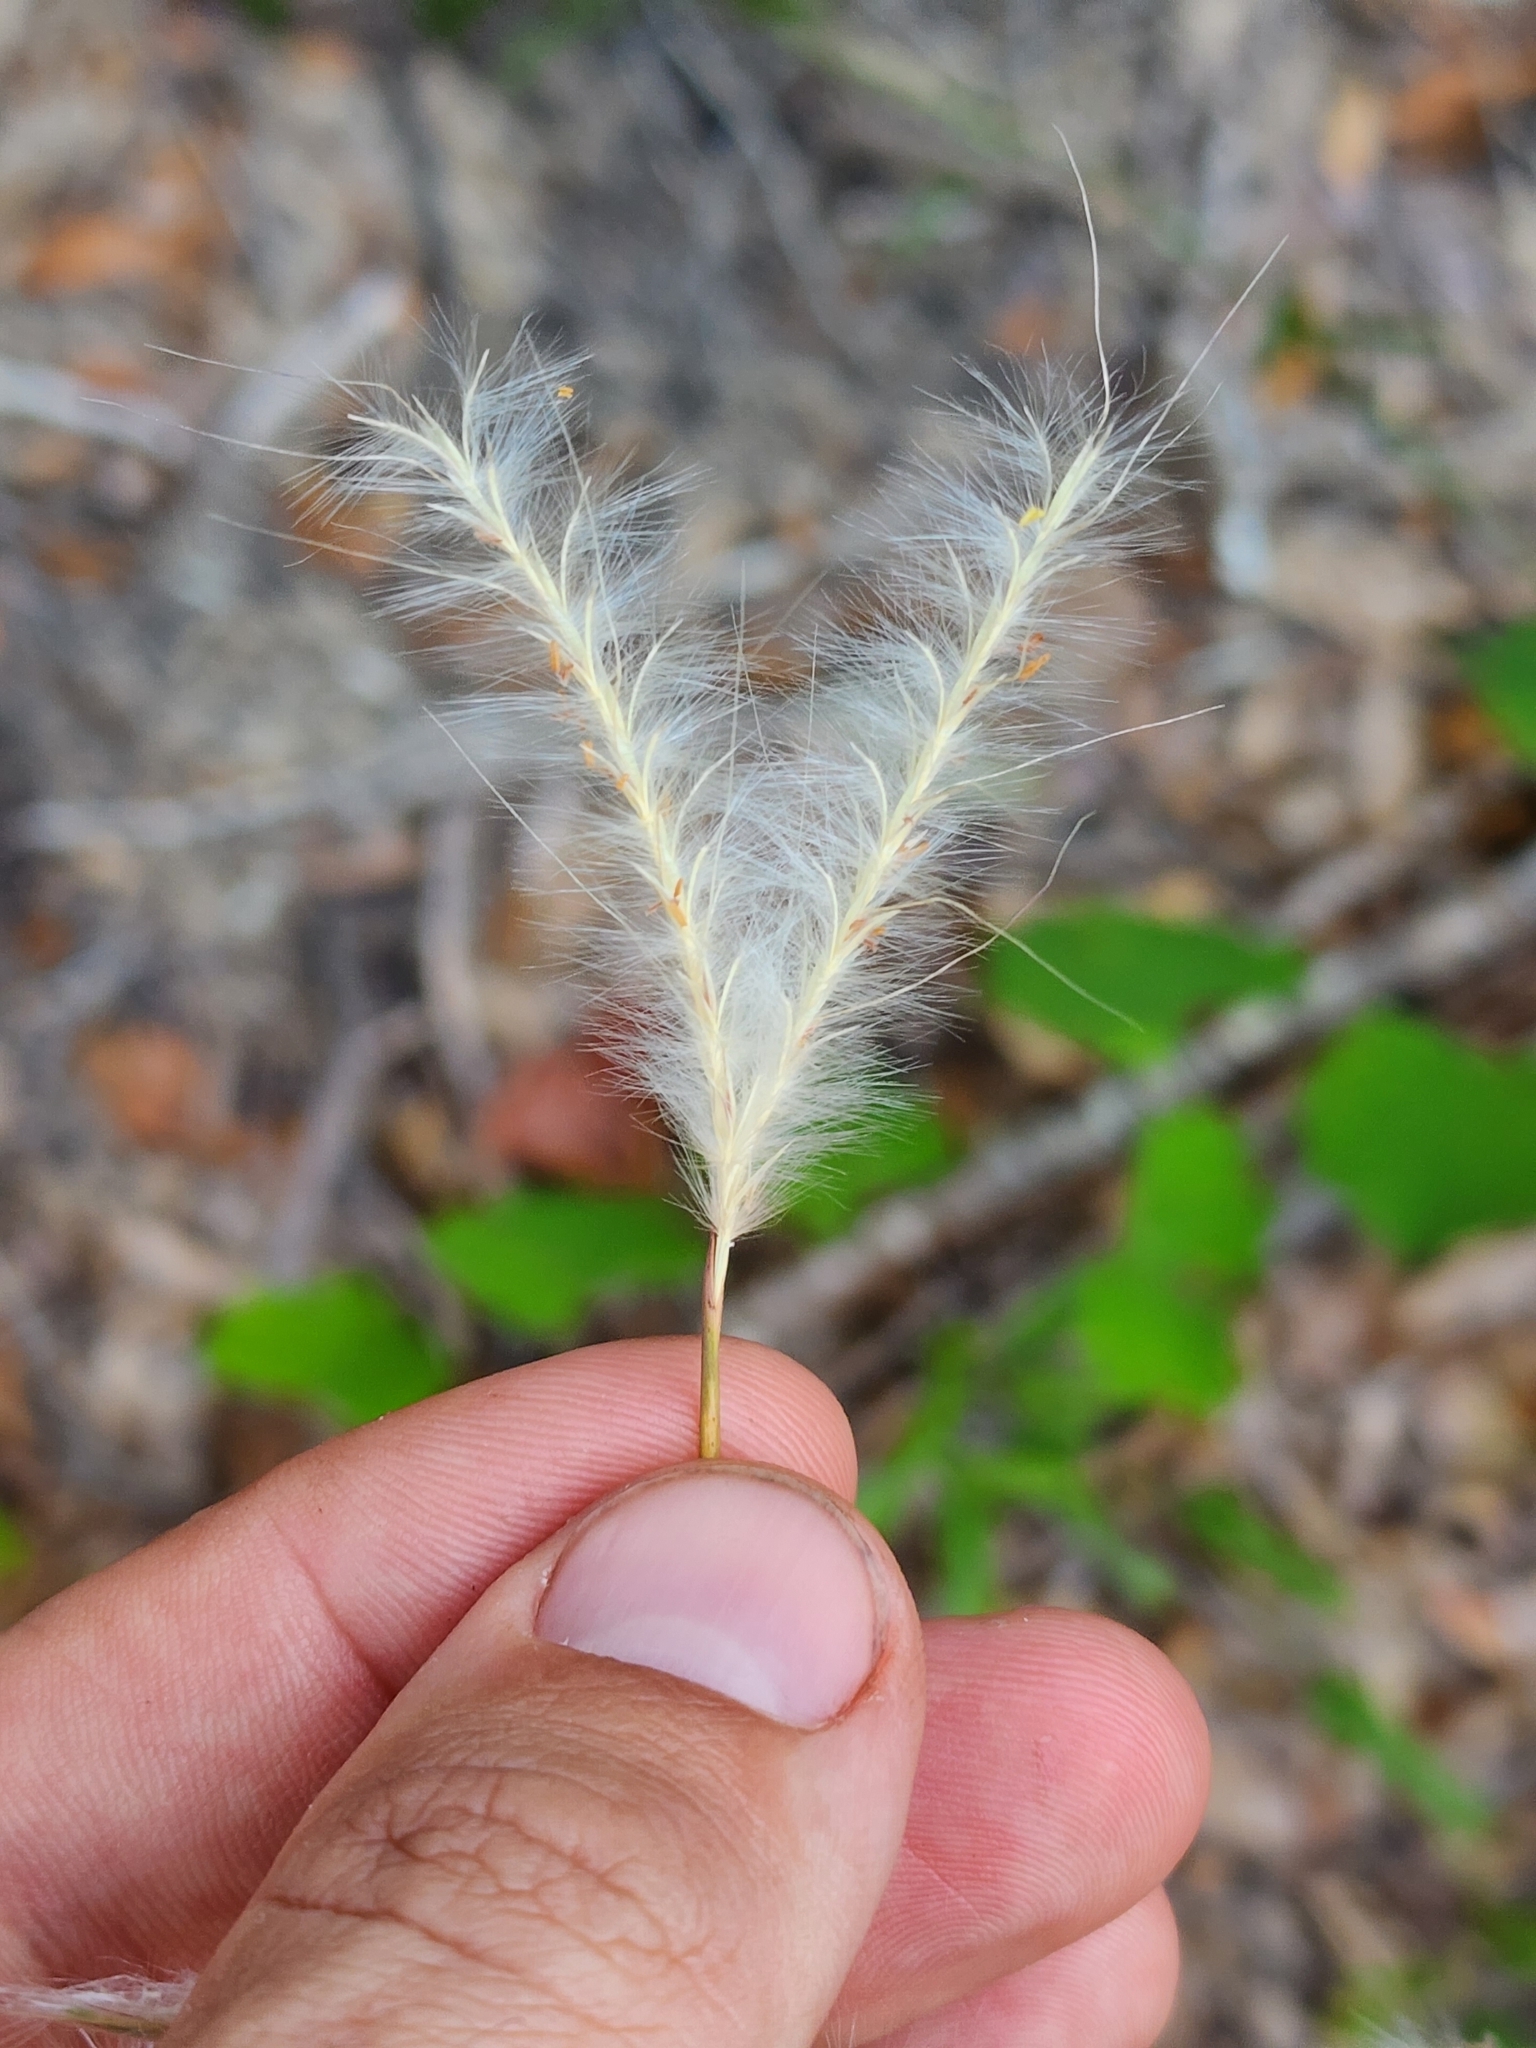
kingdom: Plantae
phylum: Tracheophyta
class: Liliopsida
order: Poales
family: Poaceae
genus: Andropogon
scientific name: Andropogon ternarius
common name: Split bluestem
